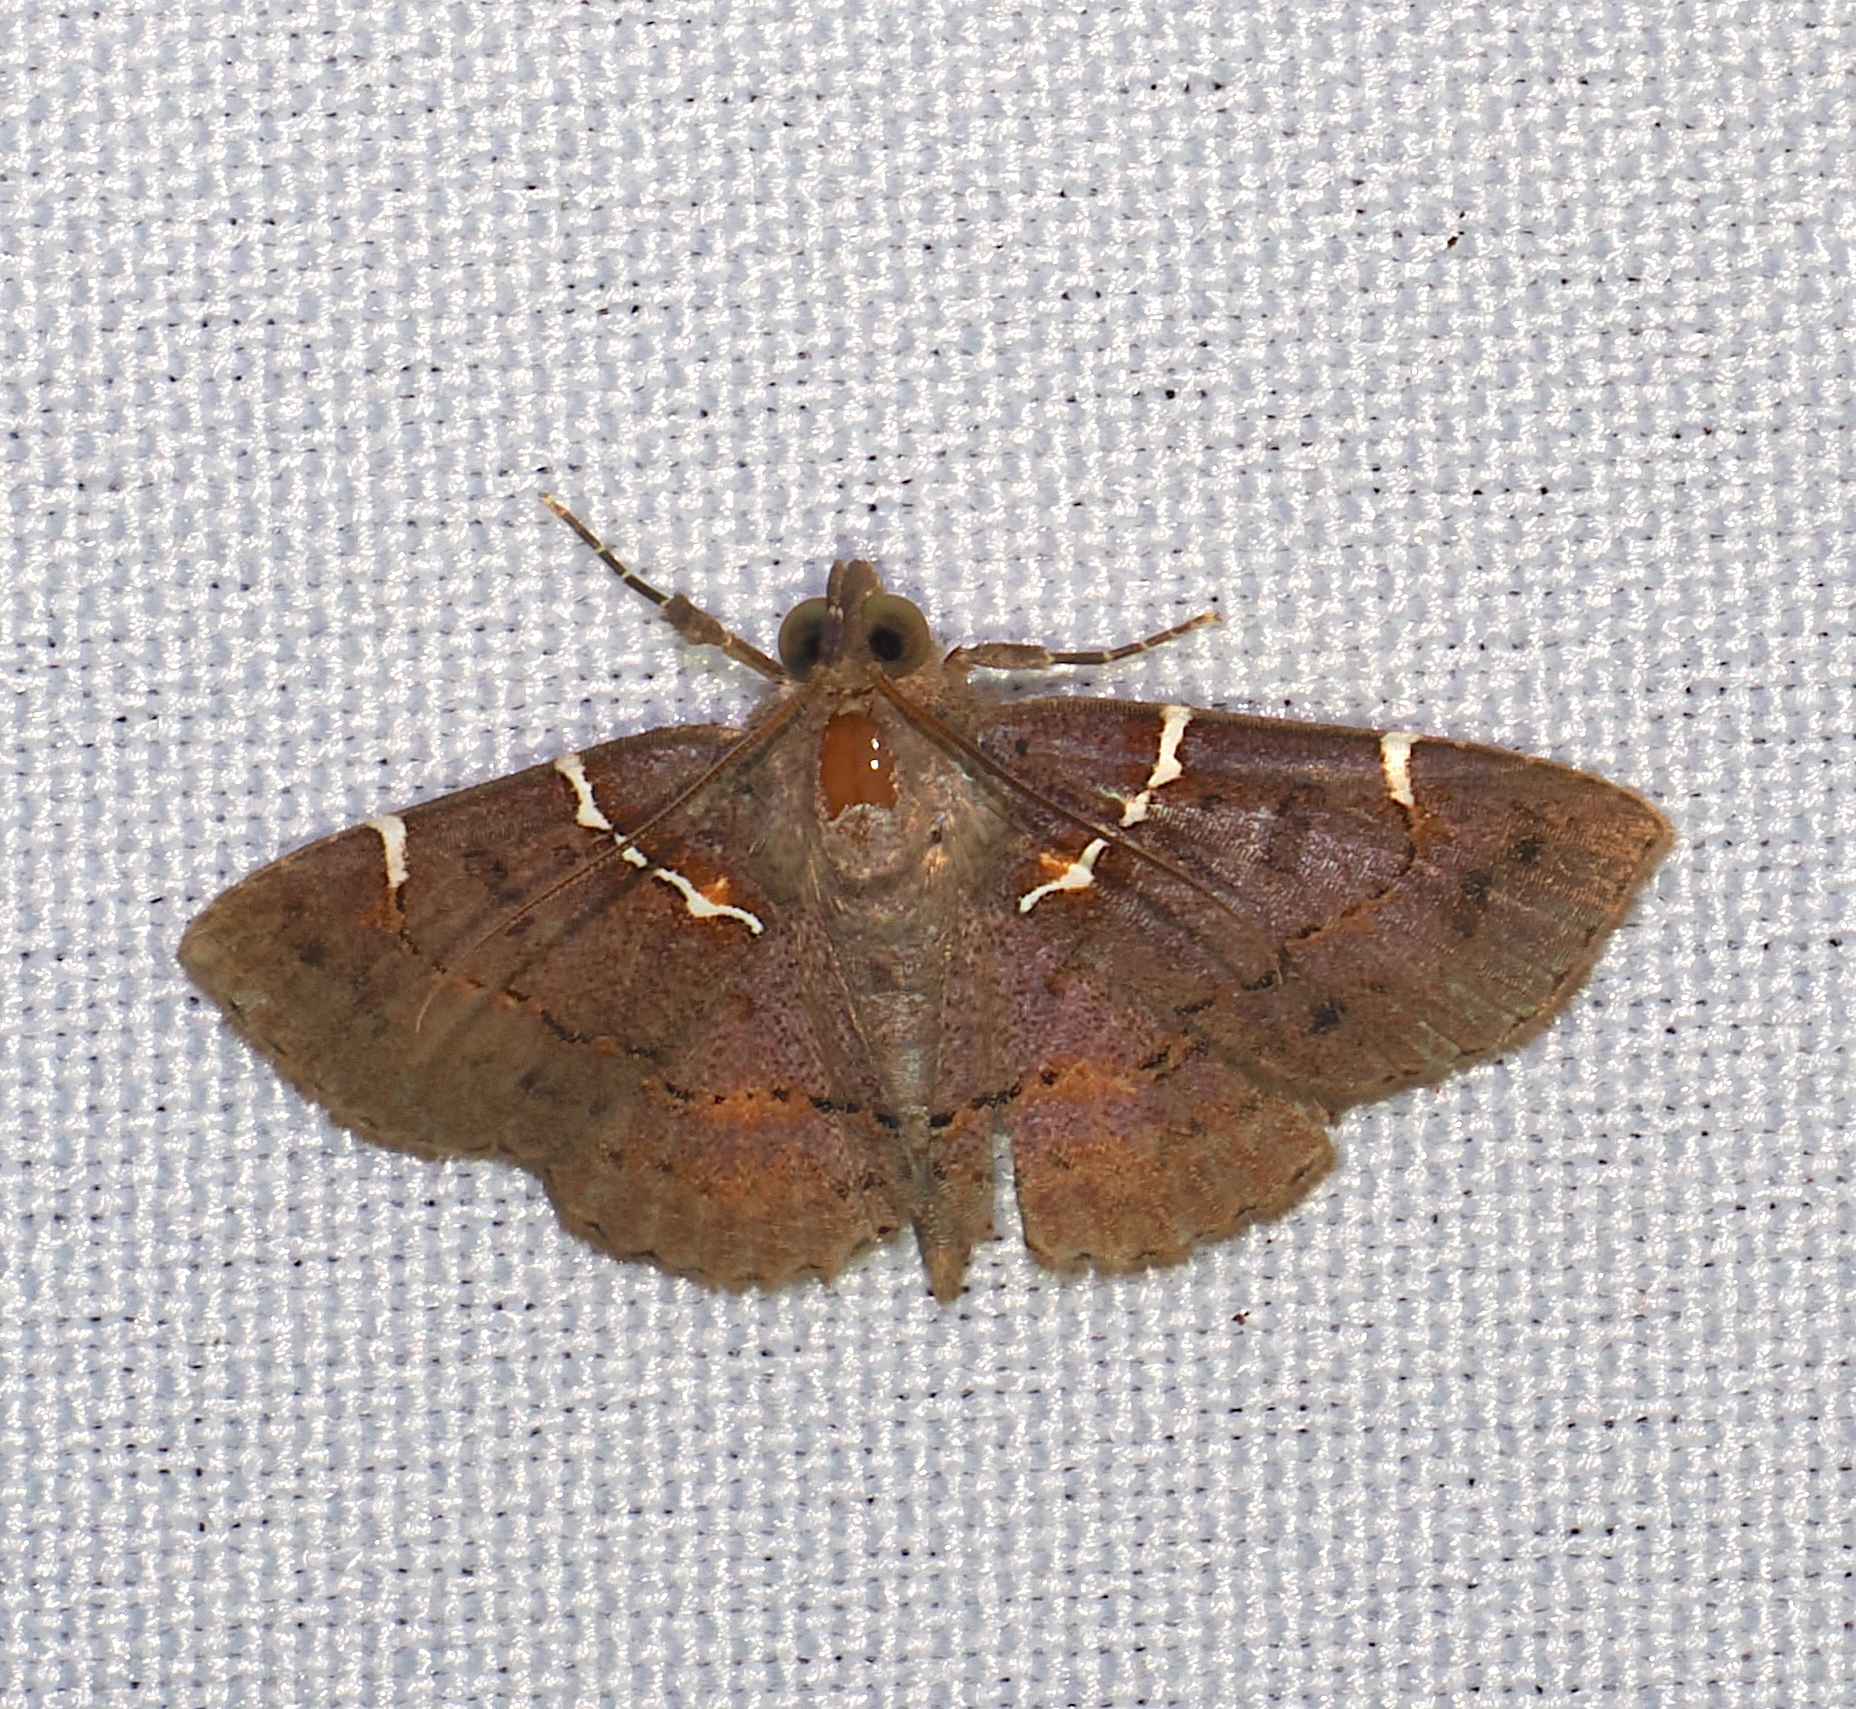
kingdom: Animalia
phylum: Arthropoda
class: Insecta
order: Lepidoptera
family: Erebidae
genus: Antiblemma
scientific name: Antiblemma lacteigera
